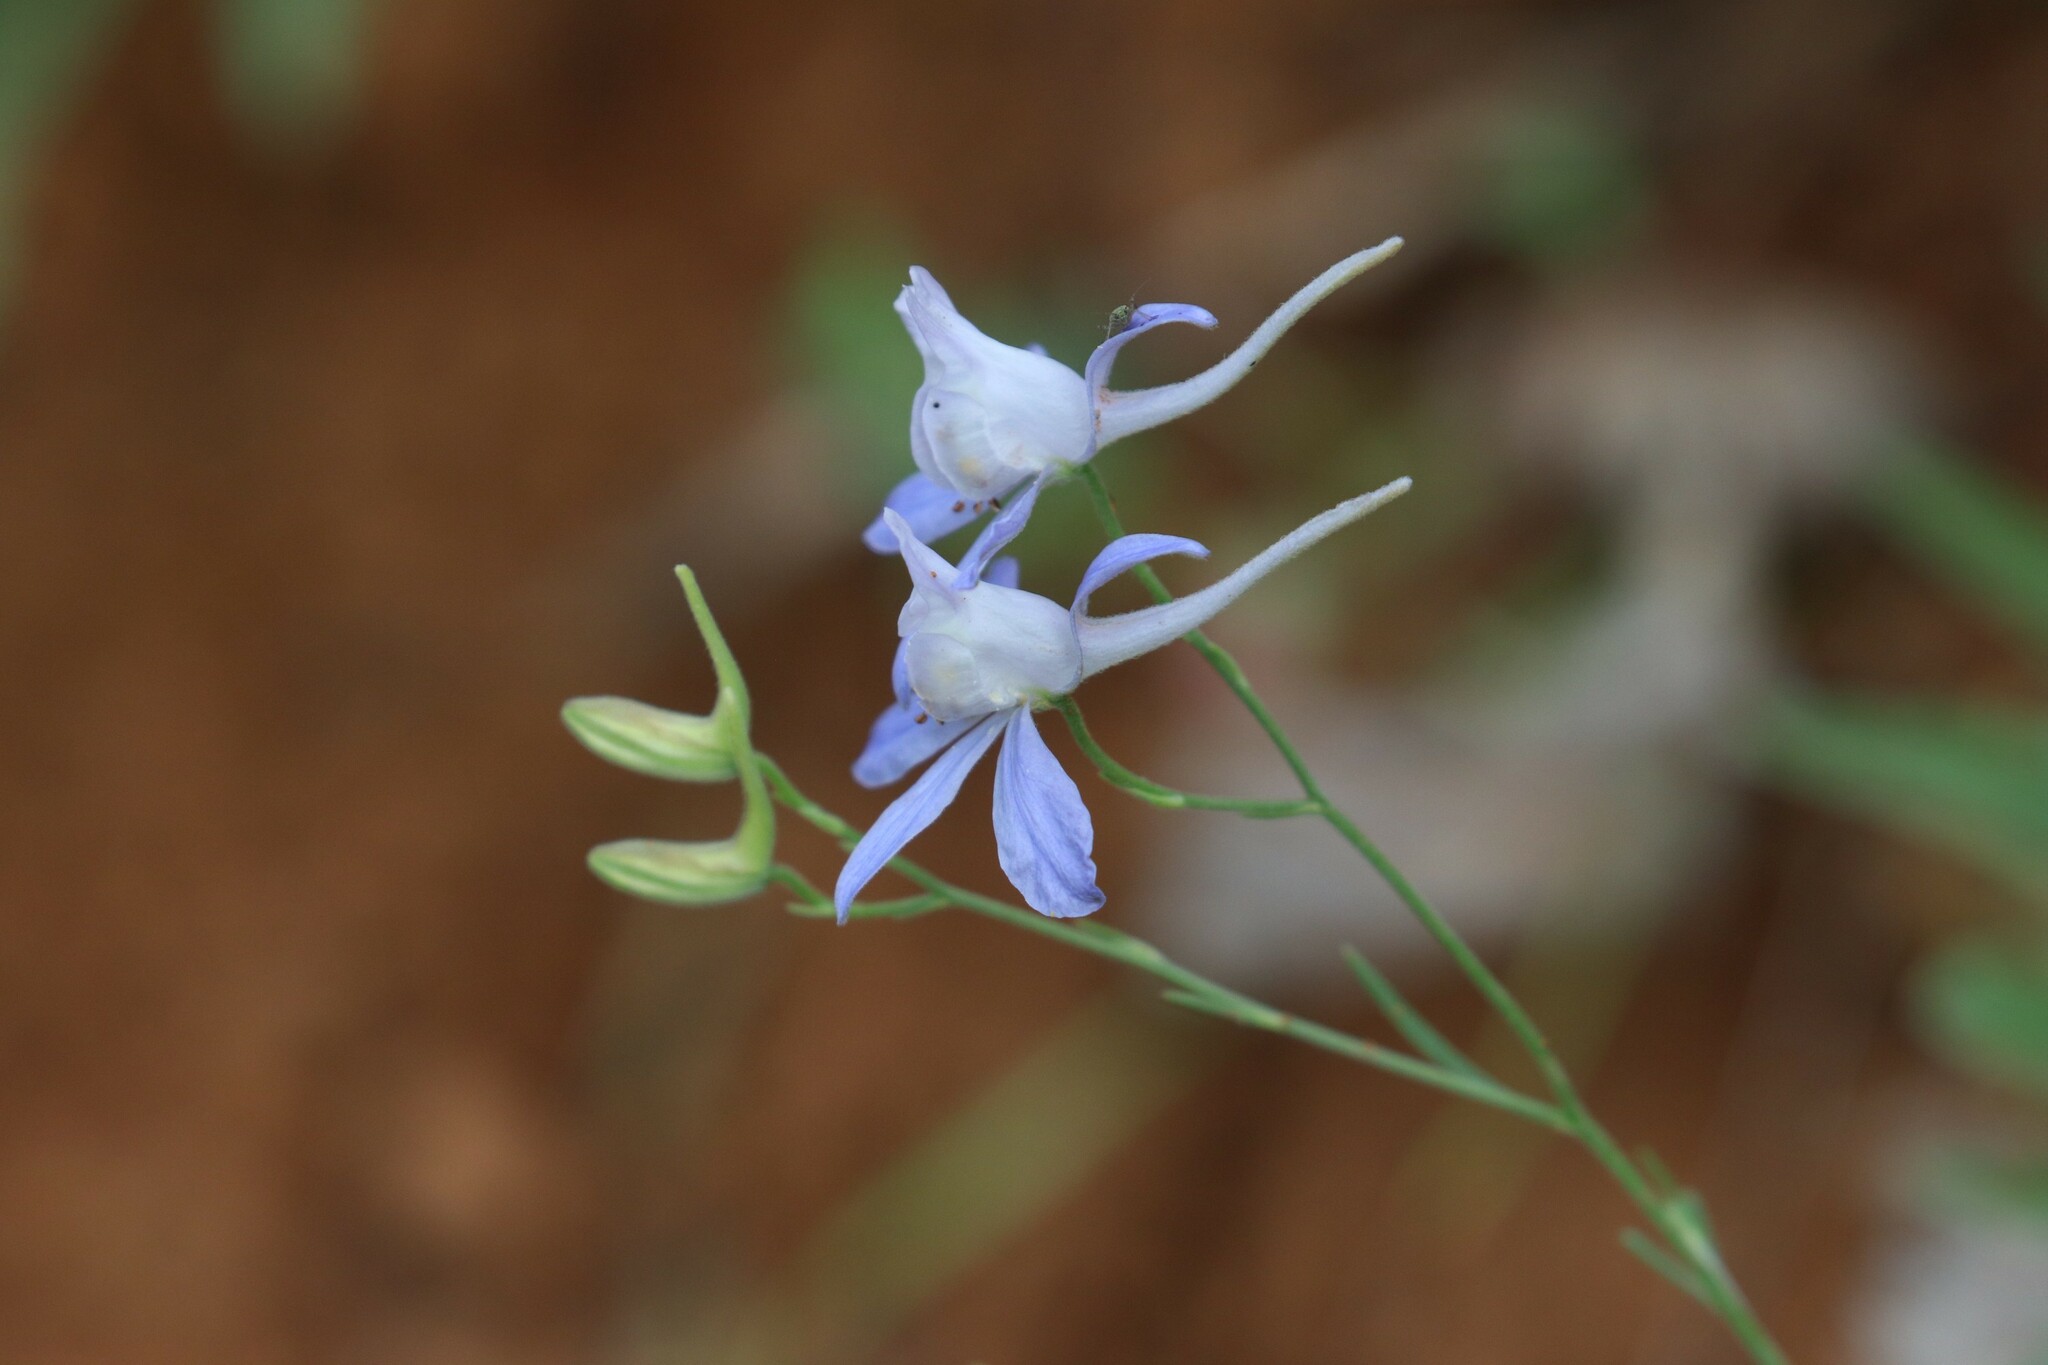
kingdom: Plantae
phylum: Tracheophyta
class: Magnoliopsida
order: Ranunculales
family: Ranunculaceae
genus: Delphinium
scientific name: Delphinium consolida
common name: Branching larkspur
